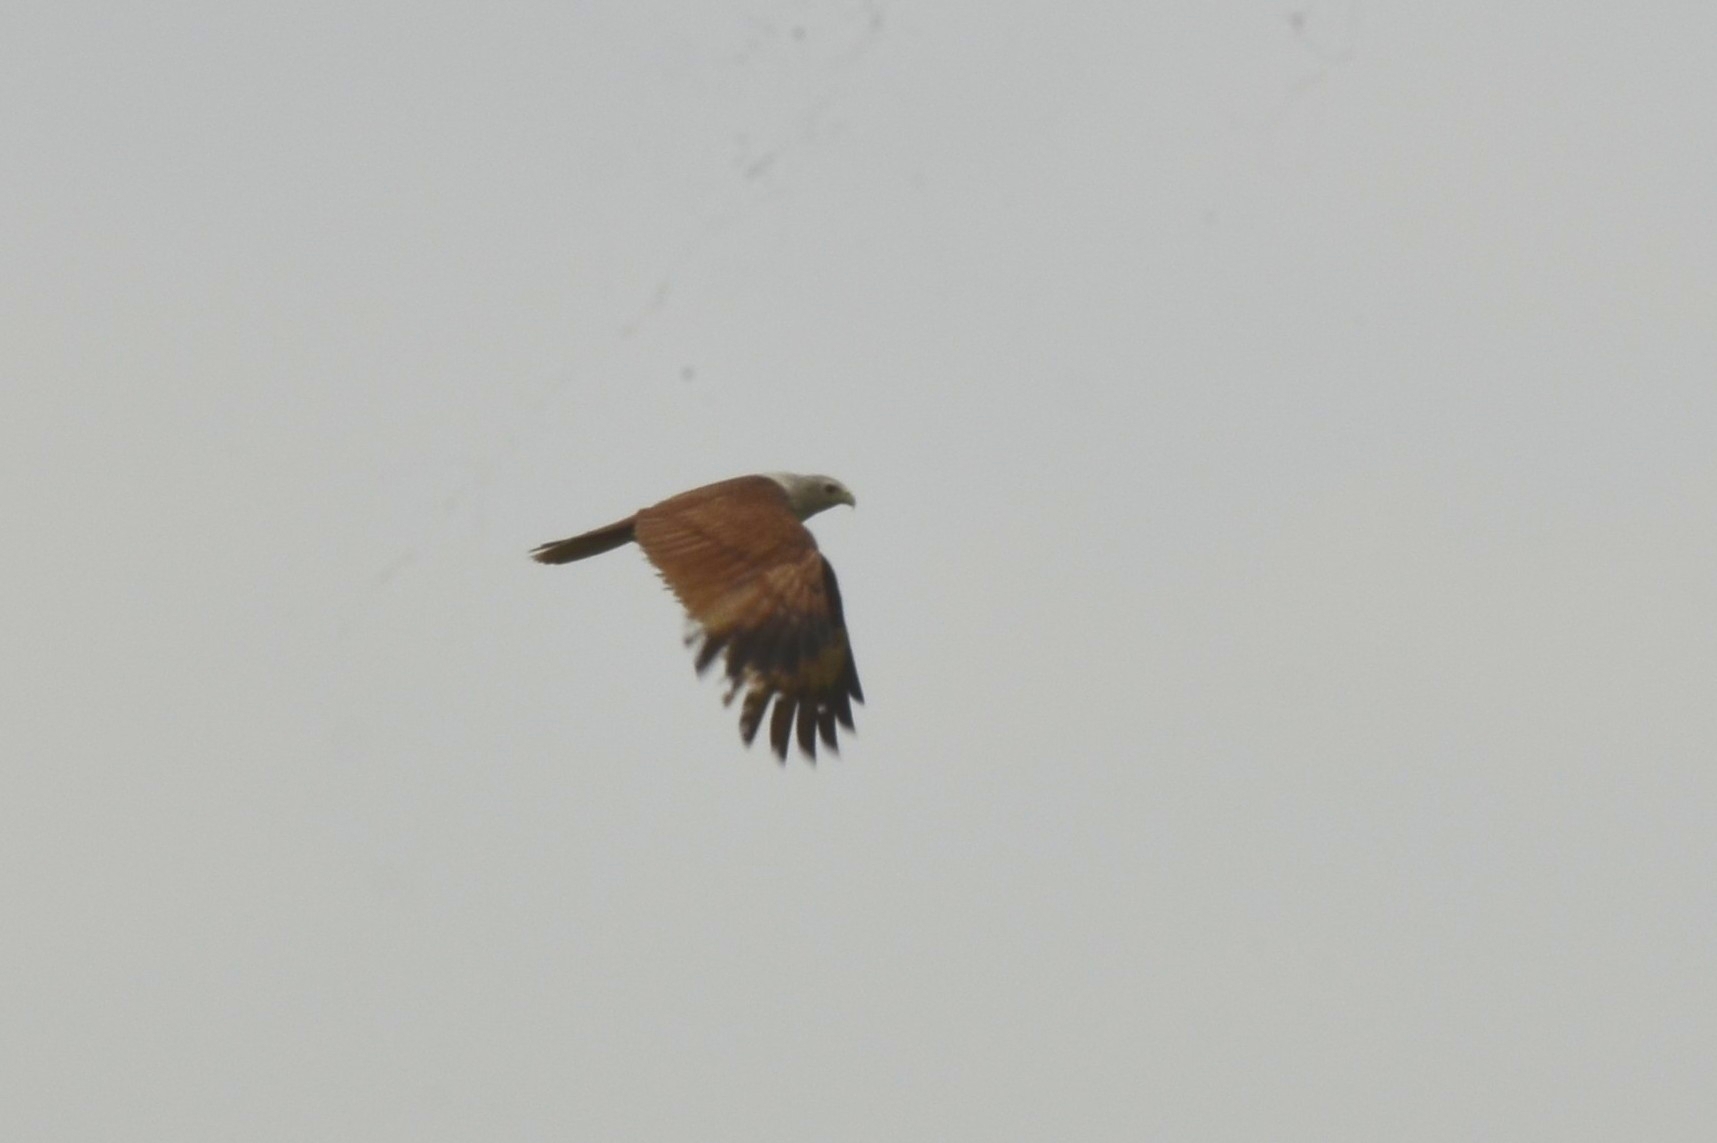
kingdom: Animalia
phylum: Chordata
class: Aves
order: Accipitriformes
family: Accipitridae
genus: Haliastur
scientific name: Haliastur indus
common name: Brahminy kite
